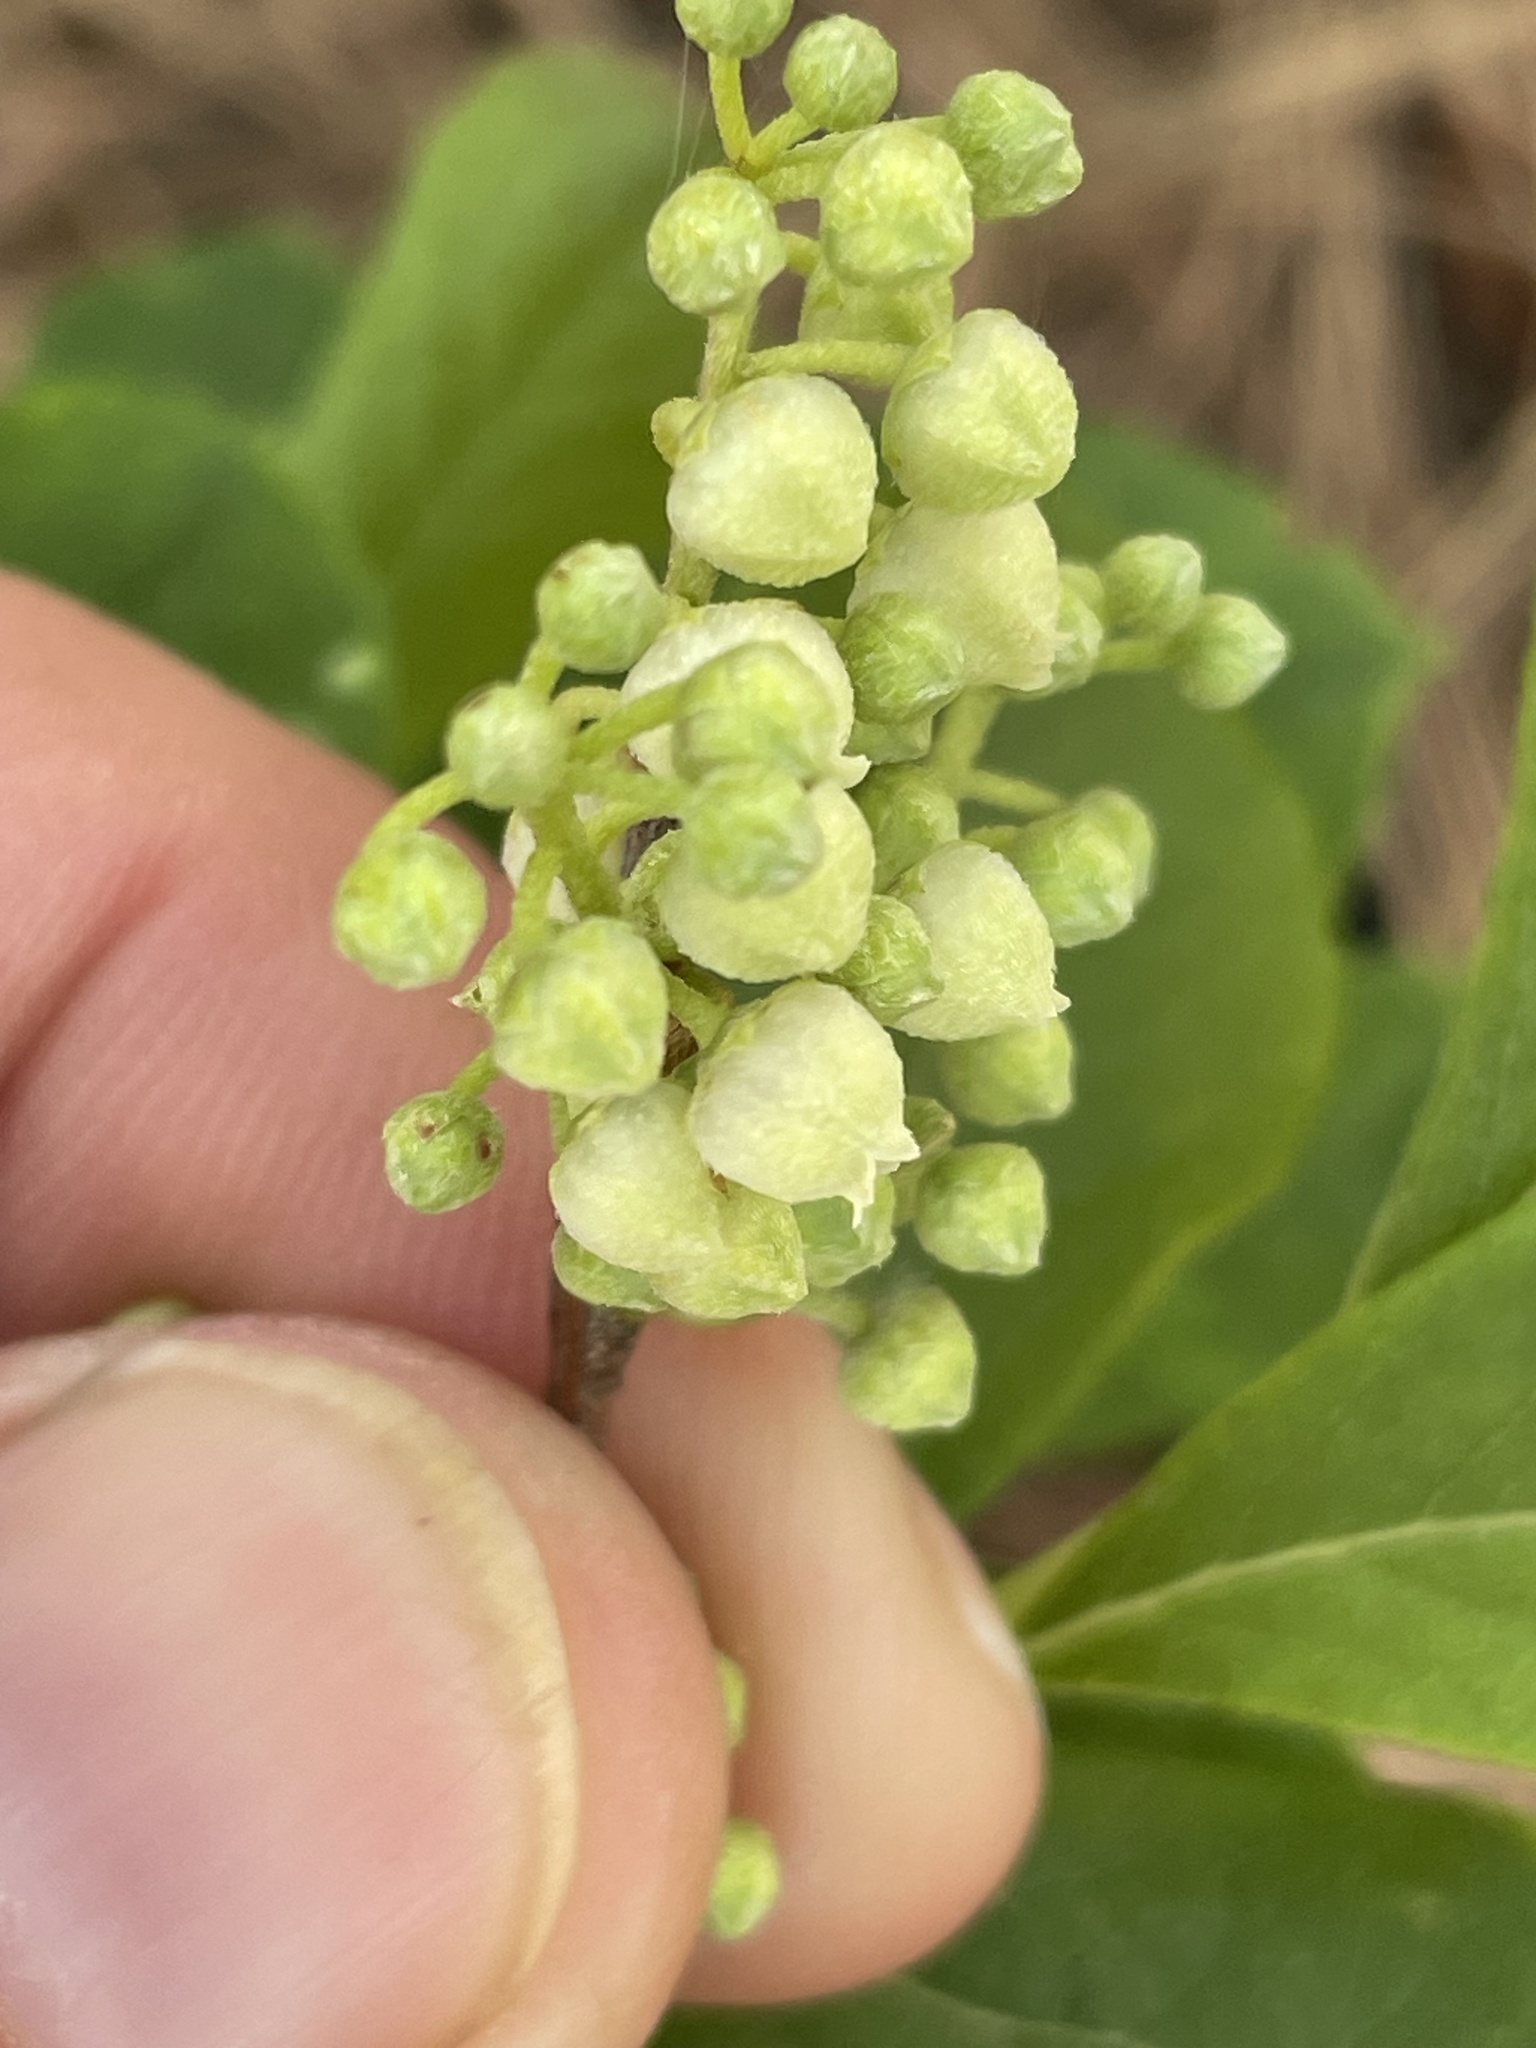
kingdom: Plantae
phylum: Tracheophyta
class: Magnoliopsida
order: Ericales
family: Ericaceae
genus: Lyonia
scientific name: Lyonia ligustrina
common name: Maleberry
